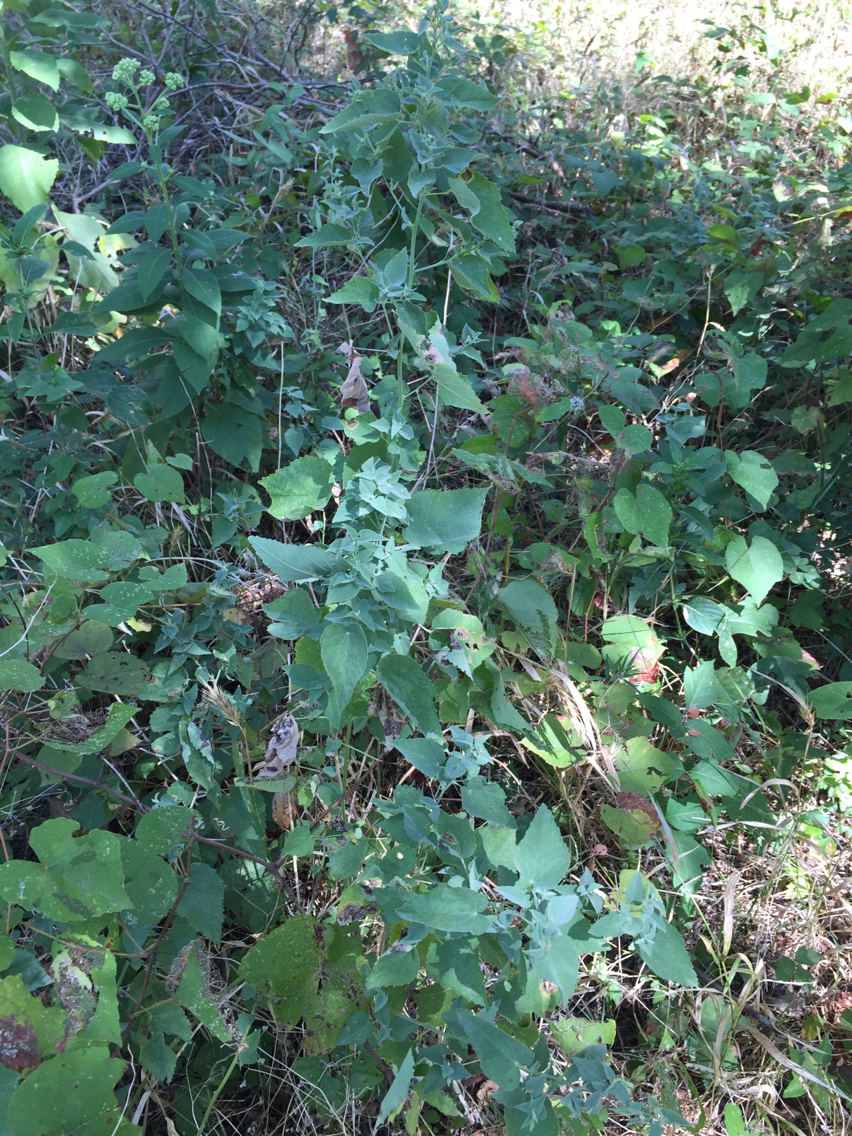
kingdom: Plantae
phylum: Tracheophyta
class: Magnoliopsida
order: Malvales
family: Malvaceae
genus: Abutilon
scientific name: Abutilon fruticosum
